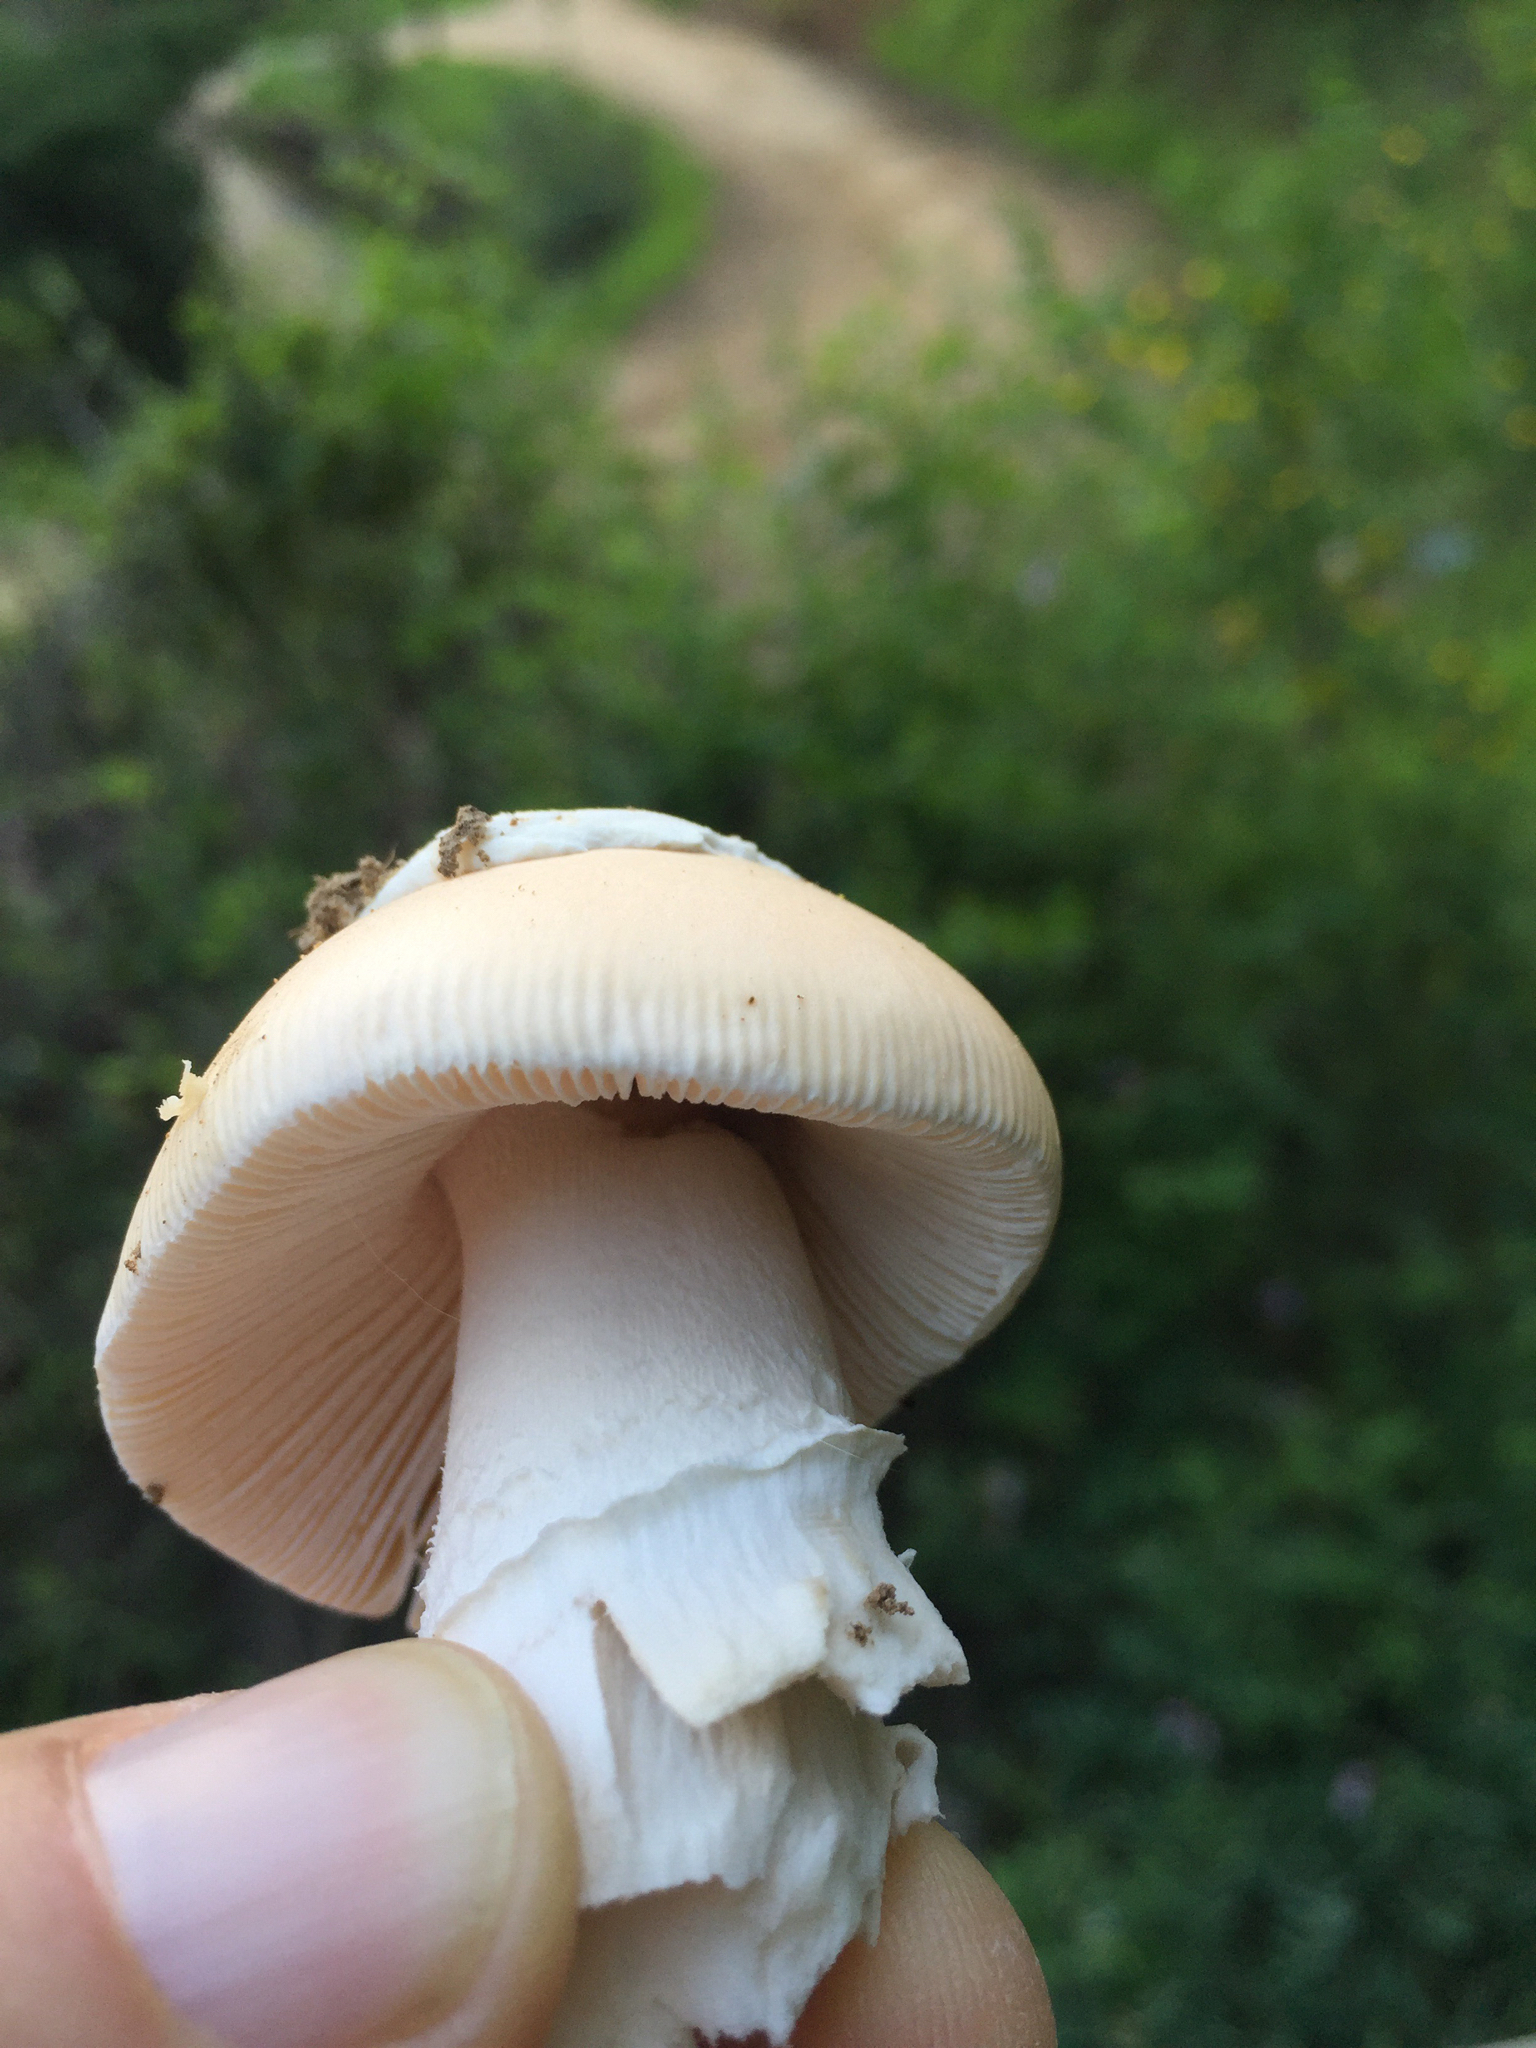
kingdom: Fungi
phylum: Basidiomycota
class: Agaricomycetes
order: Agaricales
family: Amanitaceae
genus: Amanita
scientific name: Amanita velosa
